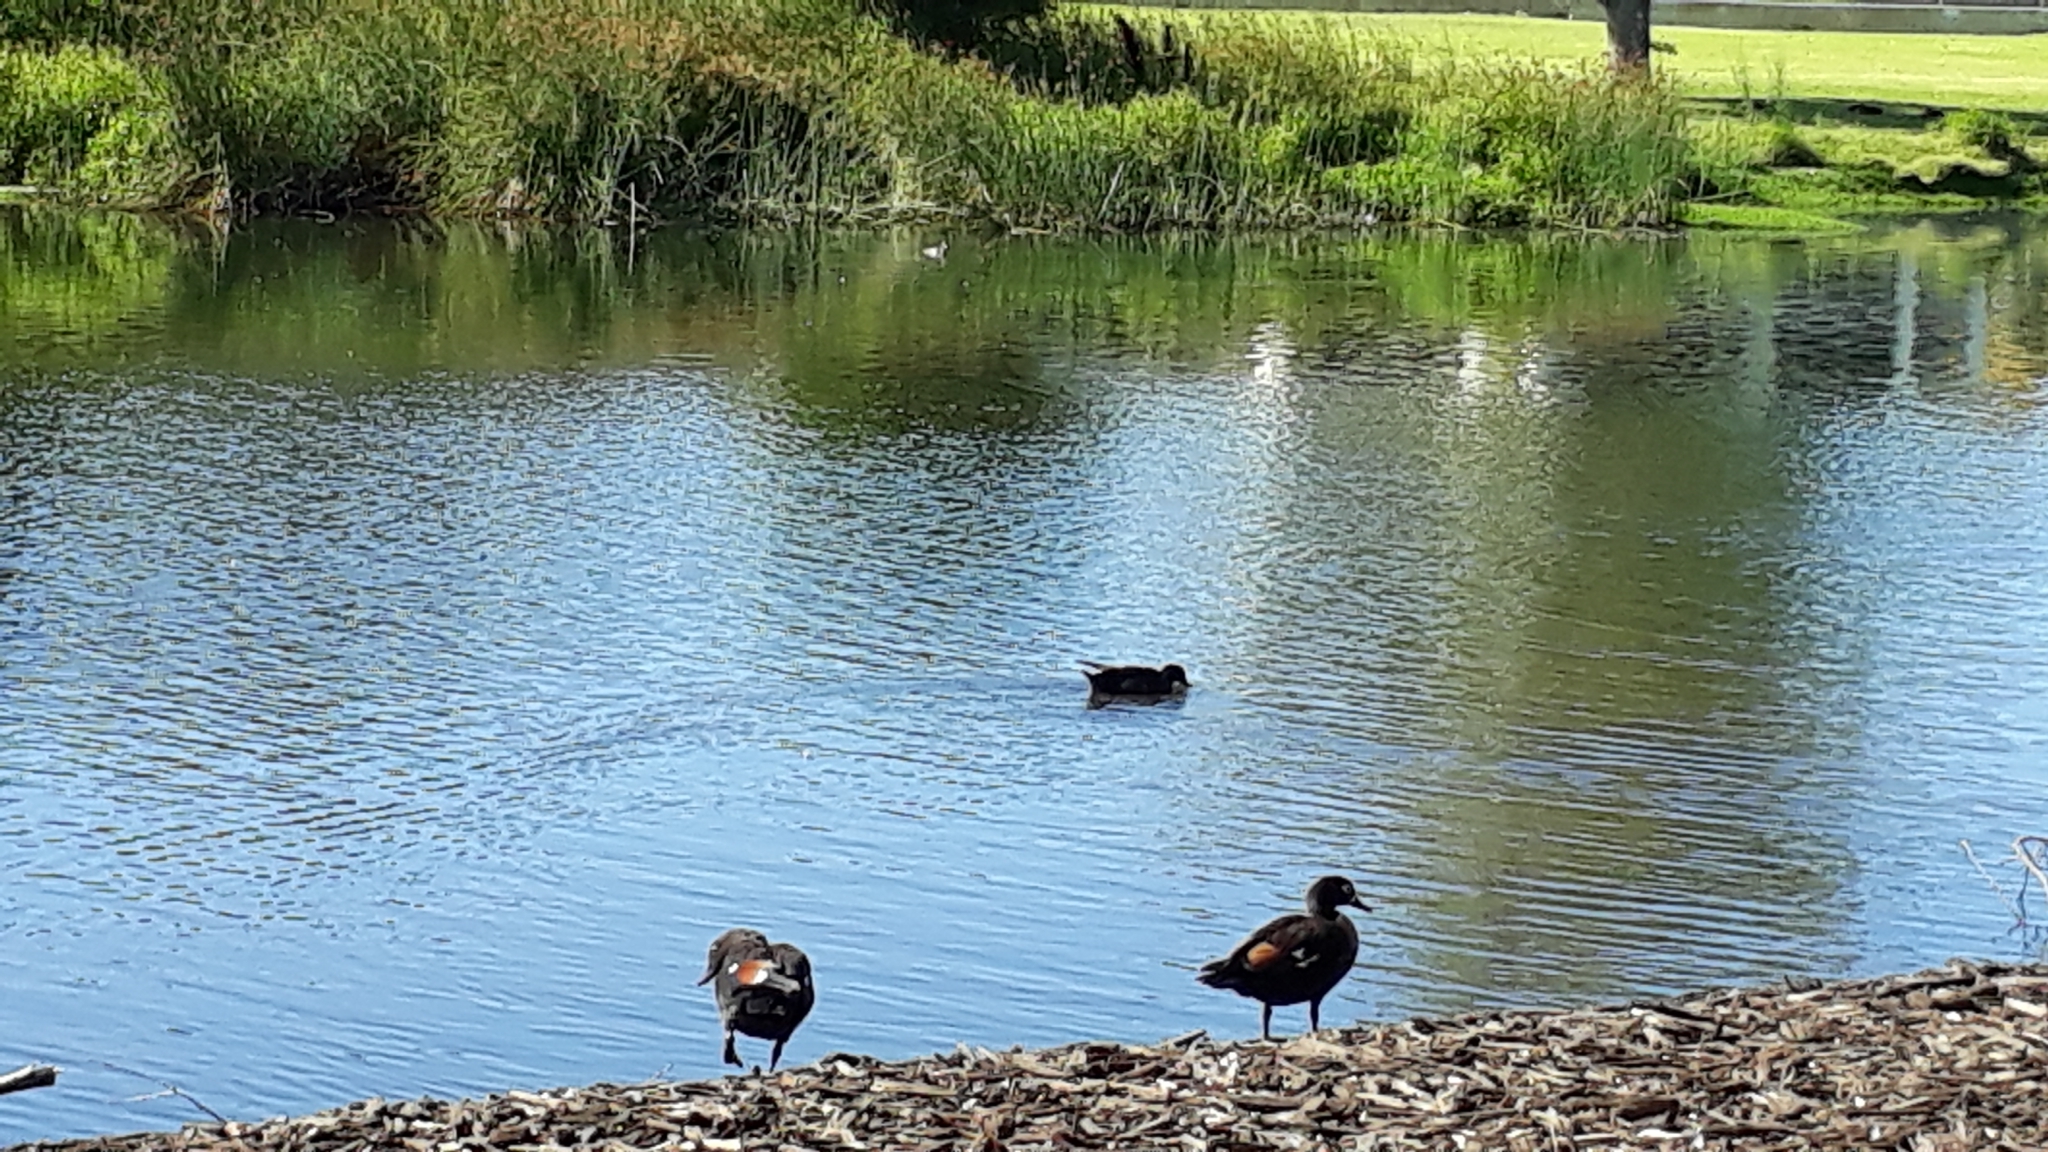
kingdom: Animalia
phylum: Chordata
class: Aves
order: Anseriformes
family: Anatidae
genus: Tadorna
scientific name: Tadorna tadornoides
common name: Australian shelduck
